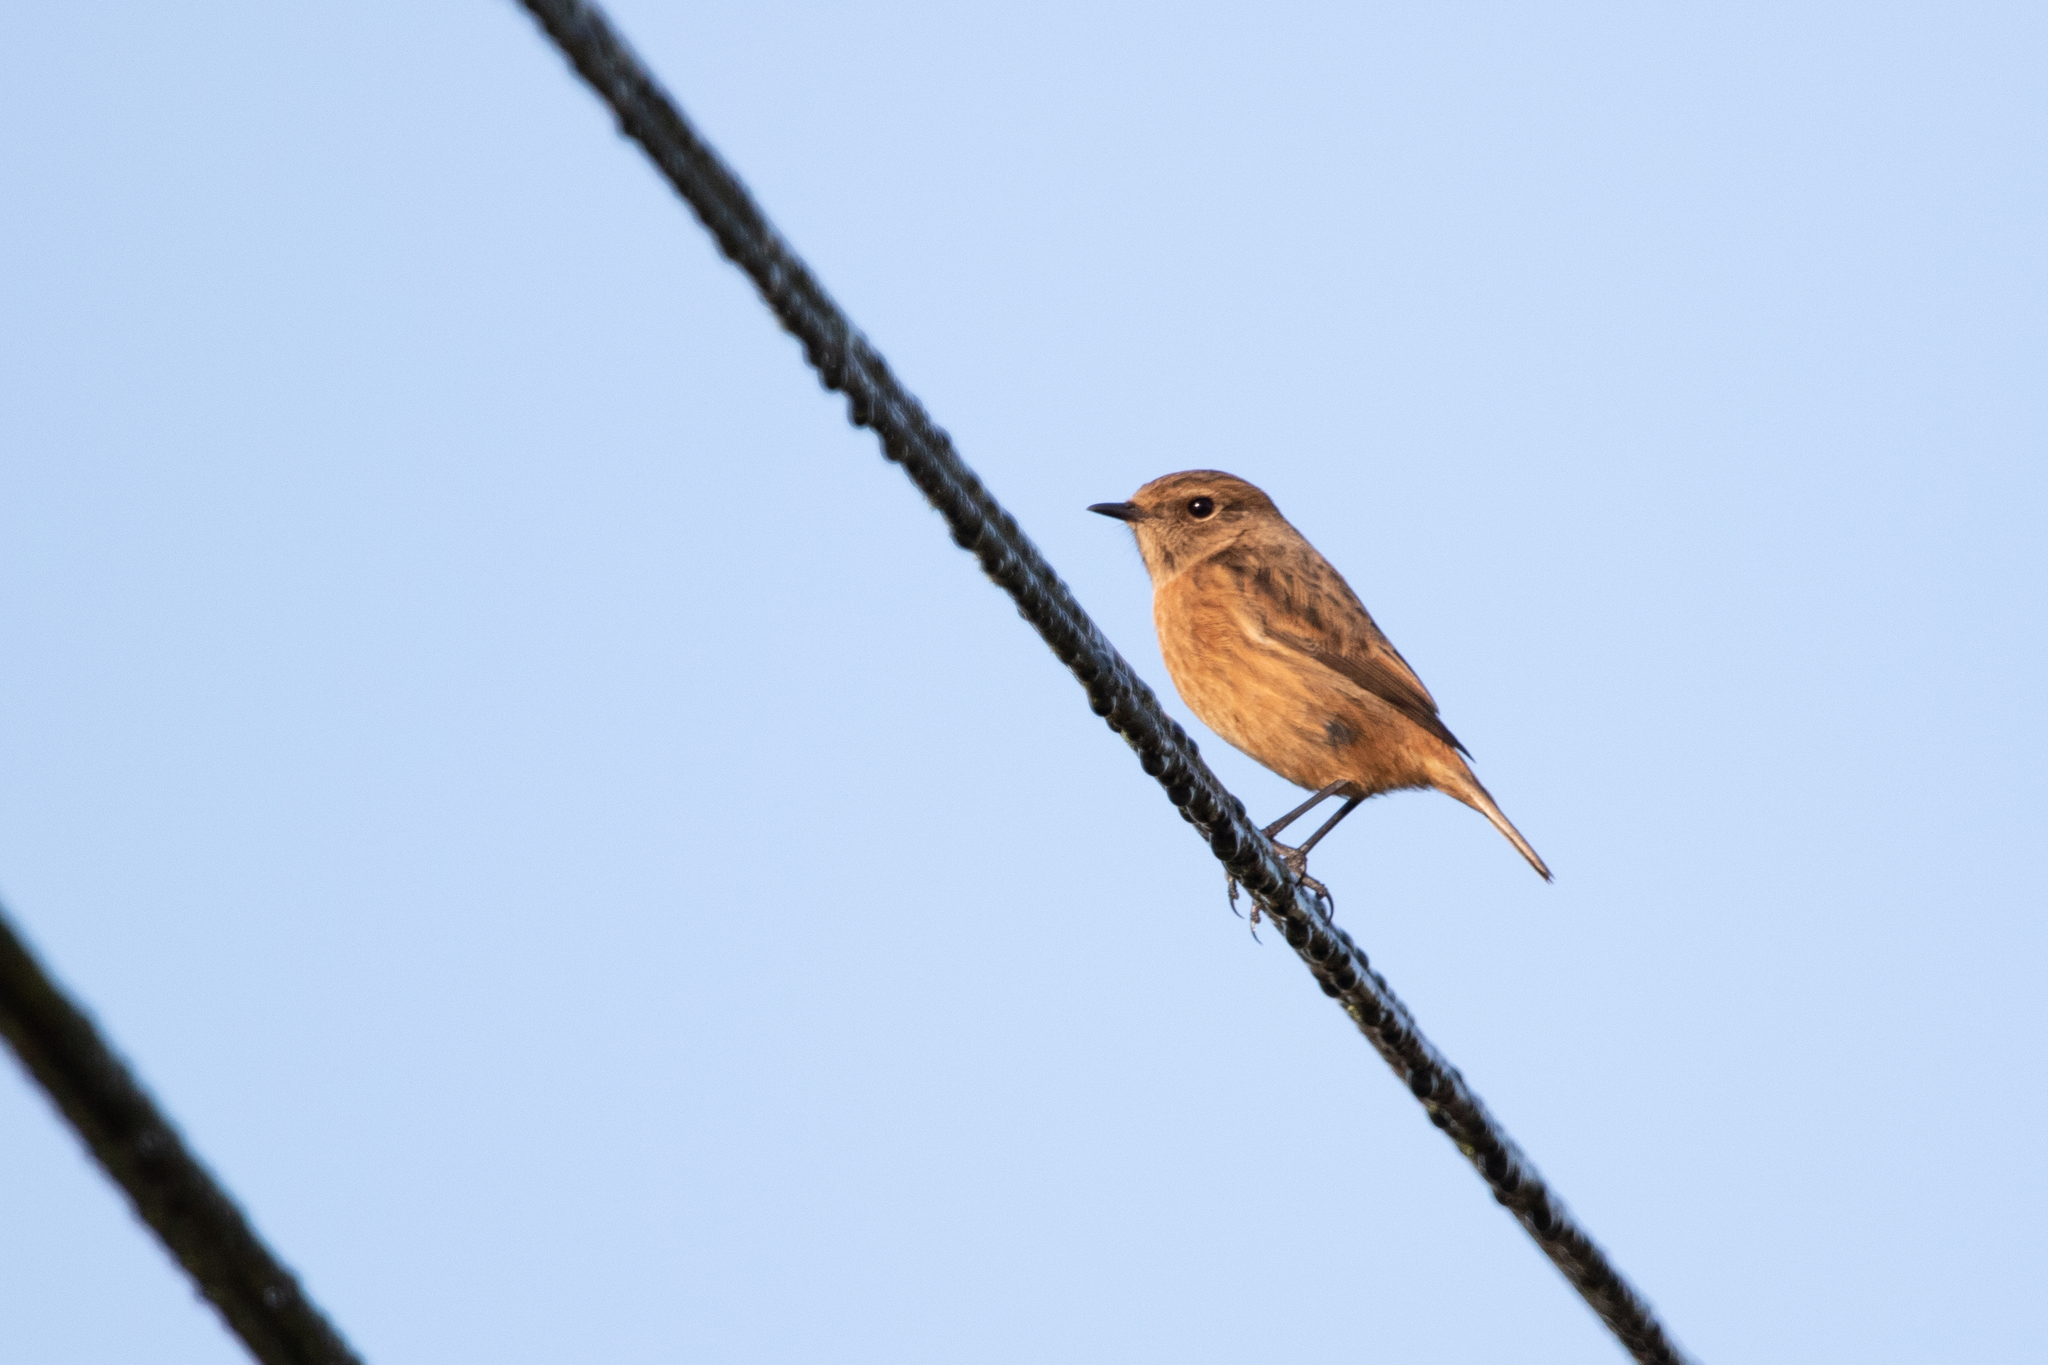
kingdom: Animalia
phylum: Chordata
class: Aves
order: Passeriformes
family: Muscicapidae
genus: Saxicola
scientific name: Saxicola rubicola
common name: European stonechat
